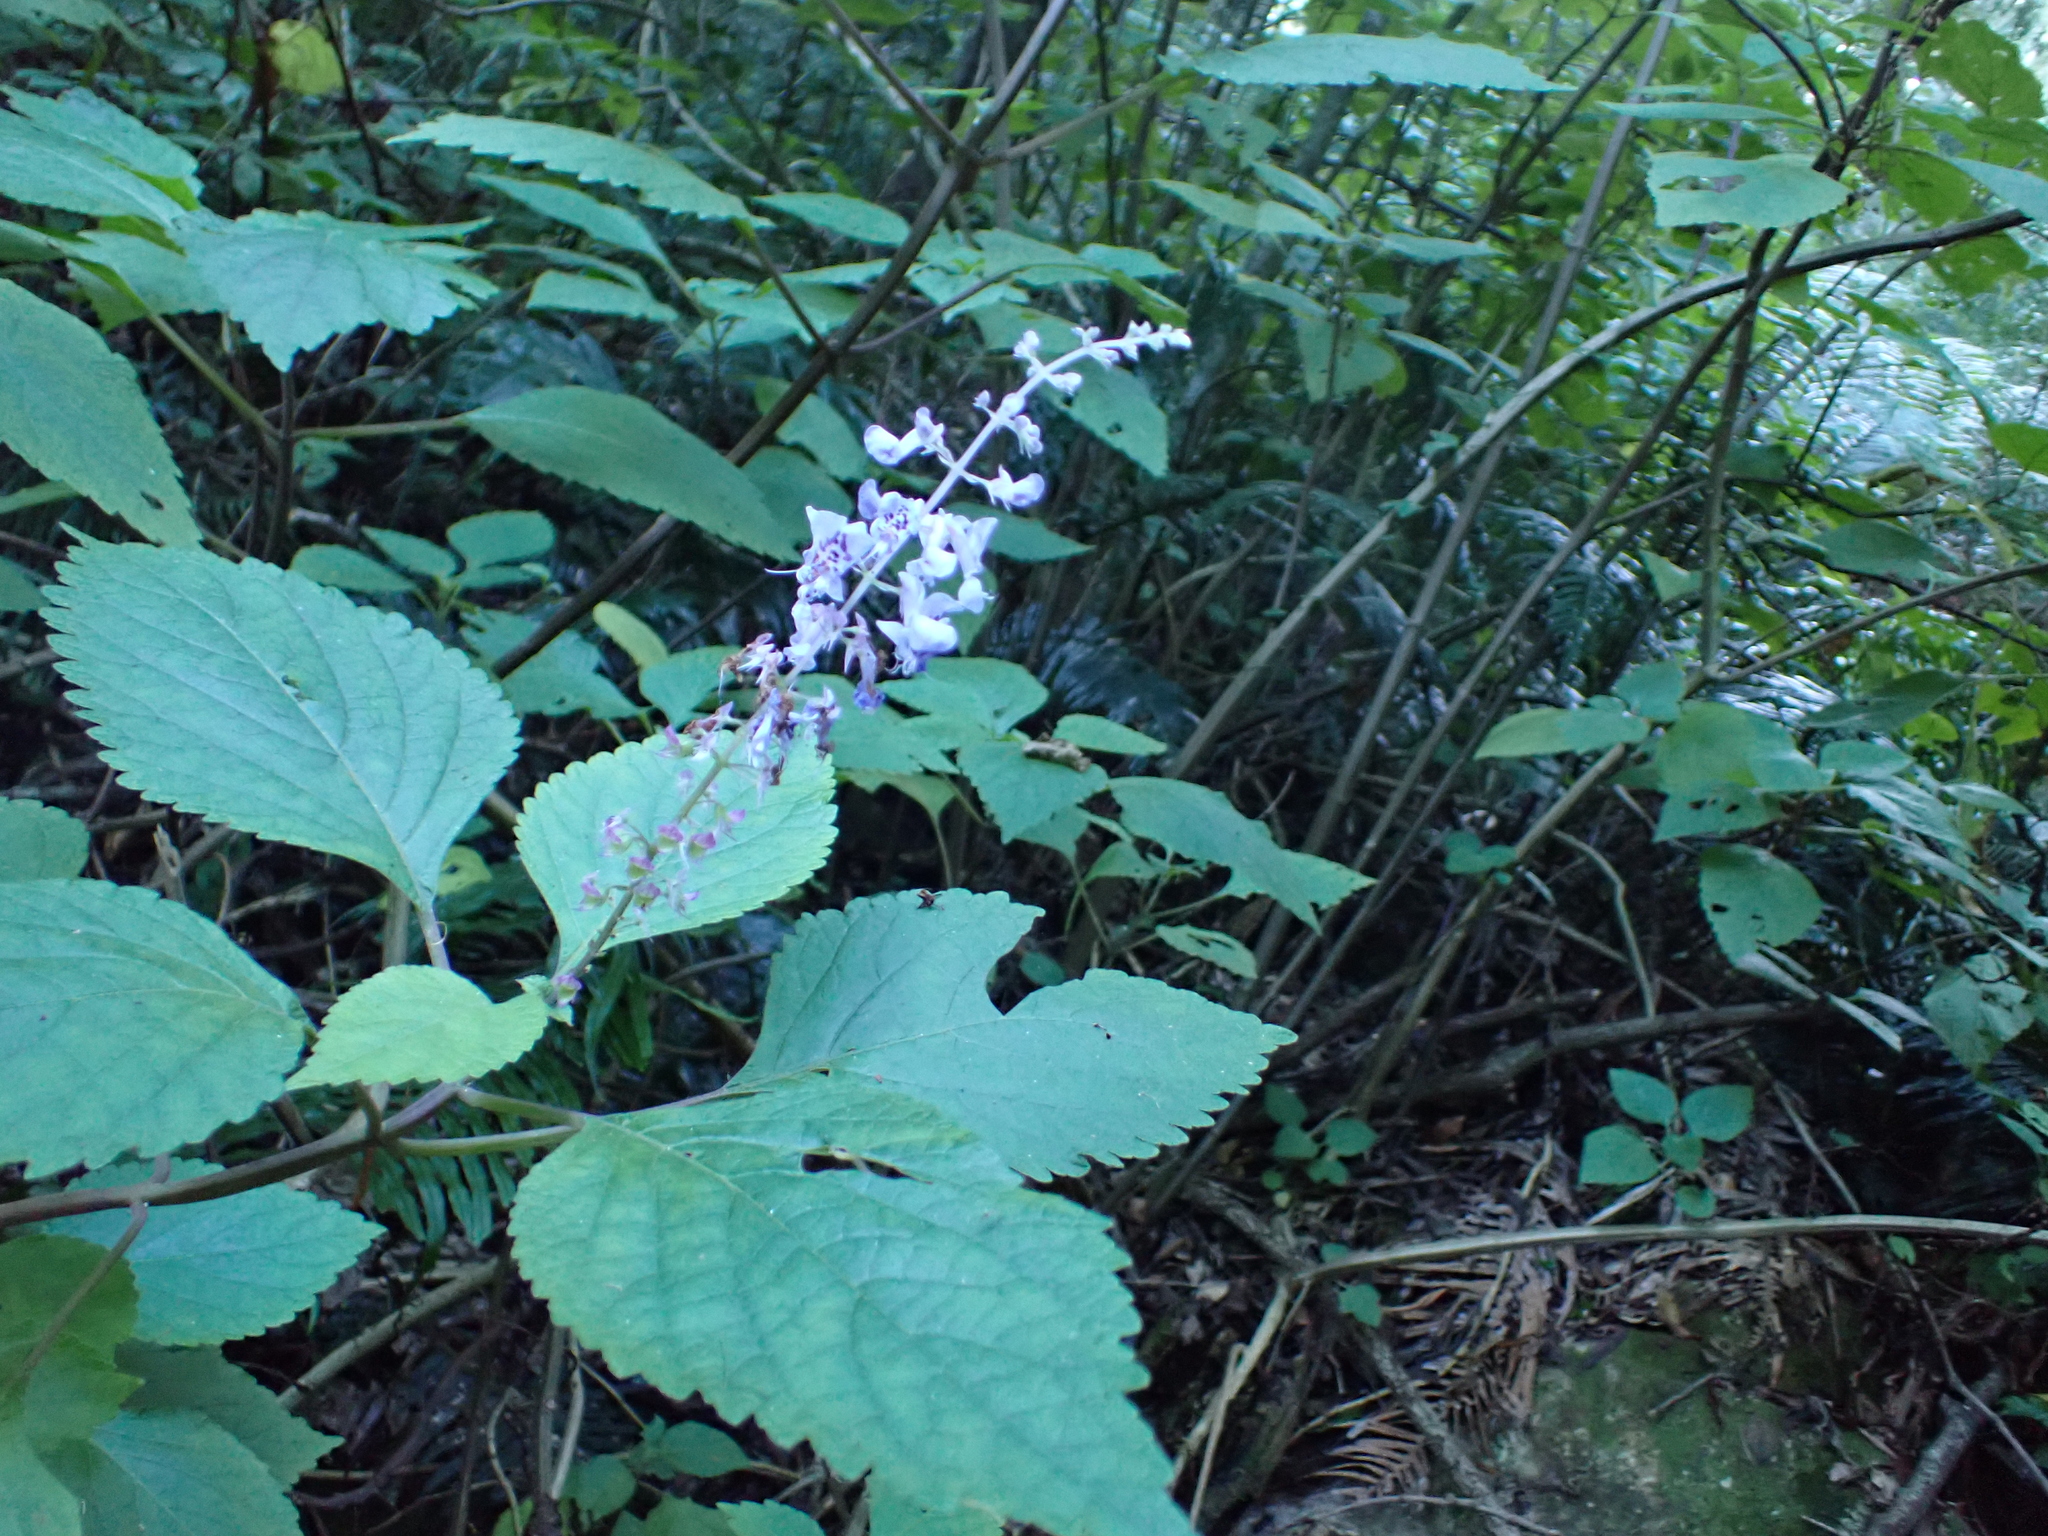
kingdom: Plantae
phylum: Tracheophyta
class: Magnoliopsida
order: Lamiales
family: Lamiaceae
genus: Plectranthus
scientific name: Plectranthus fruticosus
